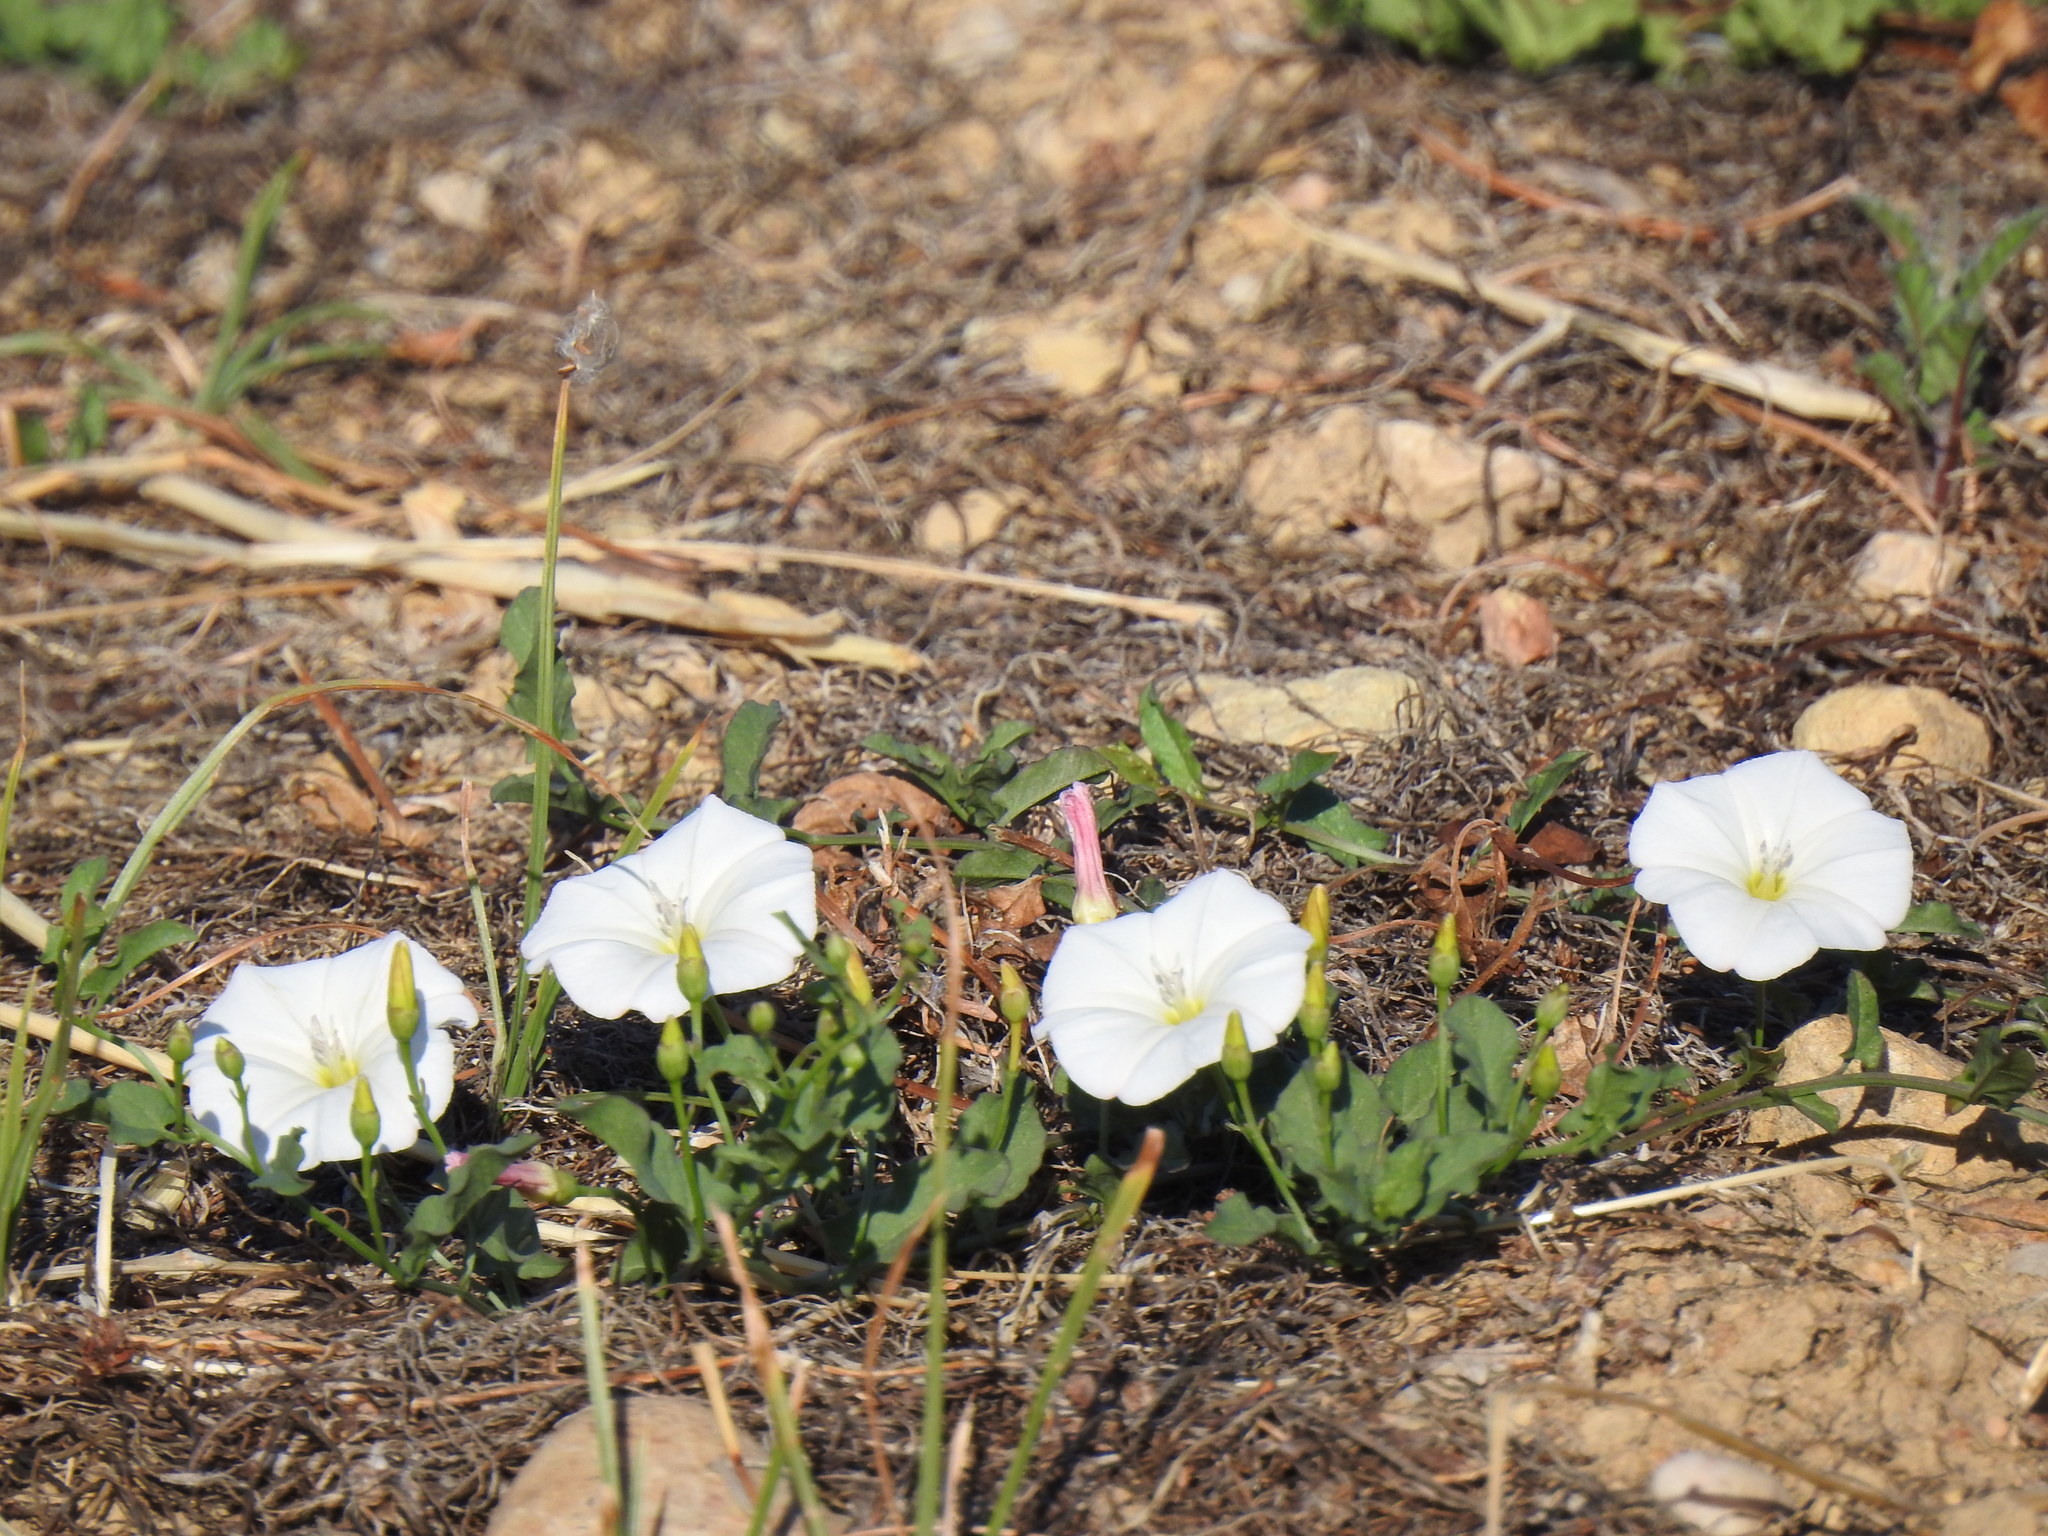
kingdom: Plantae
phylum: Tracheophyta
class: Magnoliopsida
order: Solanales
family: Convolvulaceae
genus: Convolvulus
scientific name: Convolvulus arvensis
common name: Field bindweed
